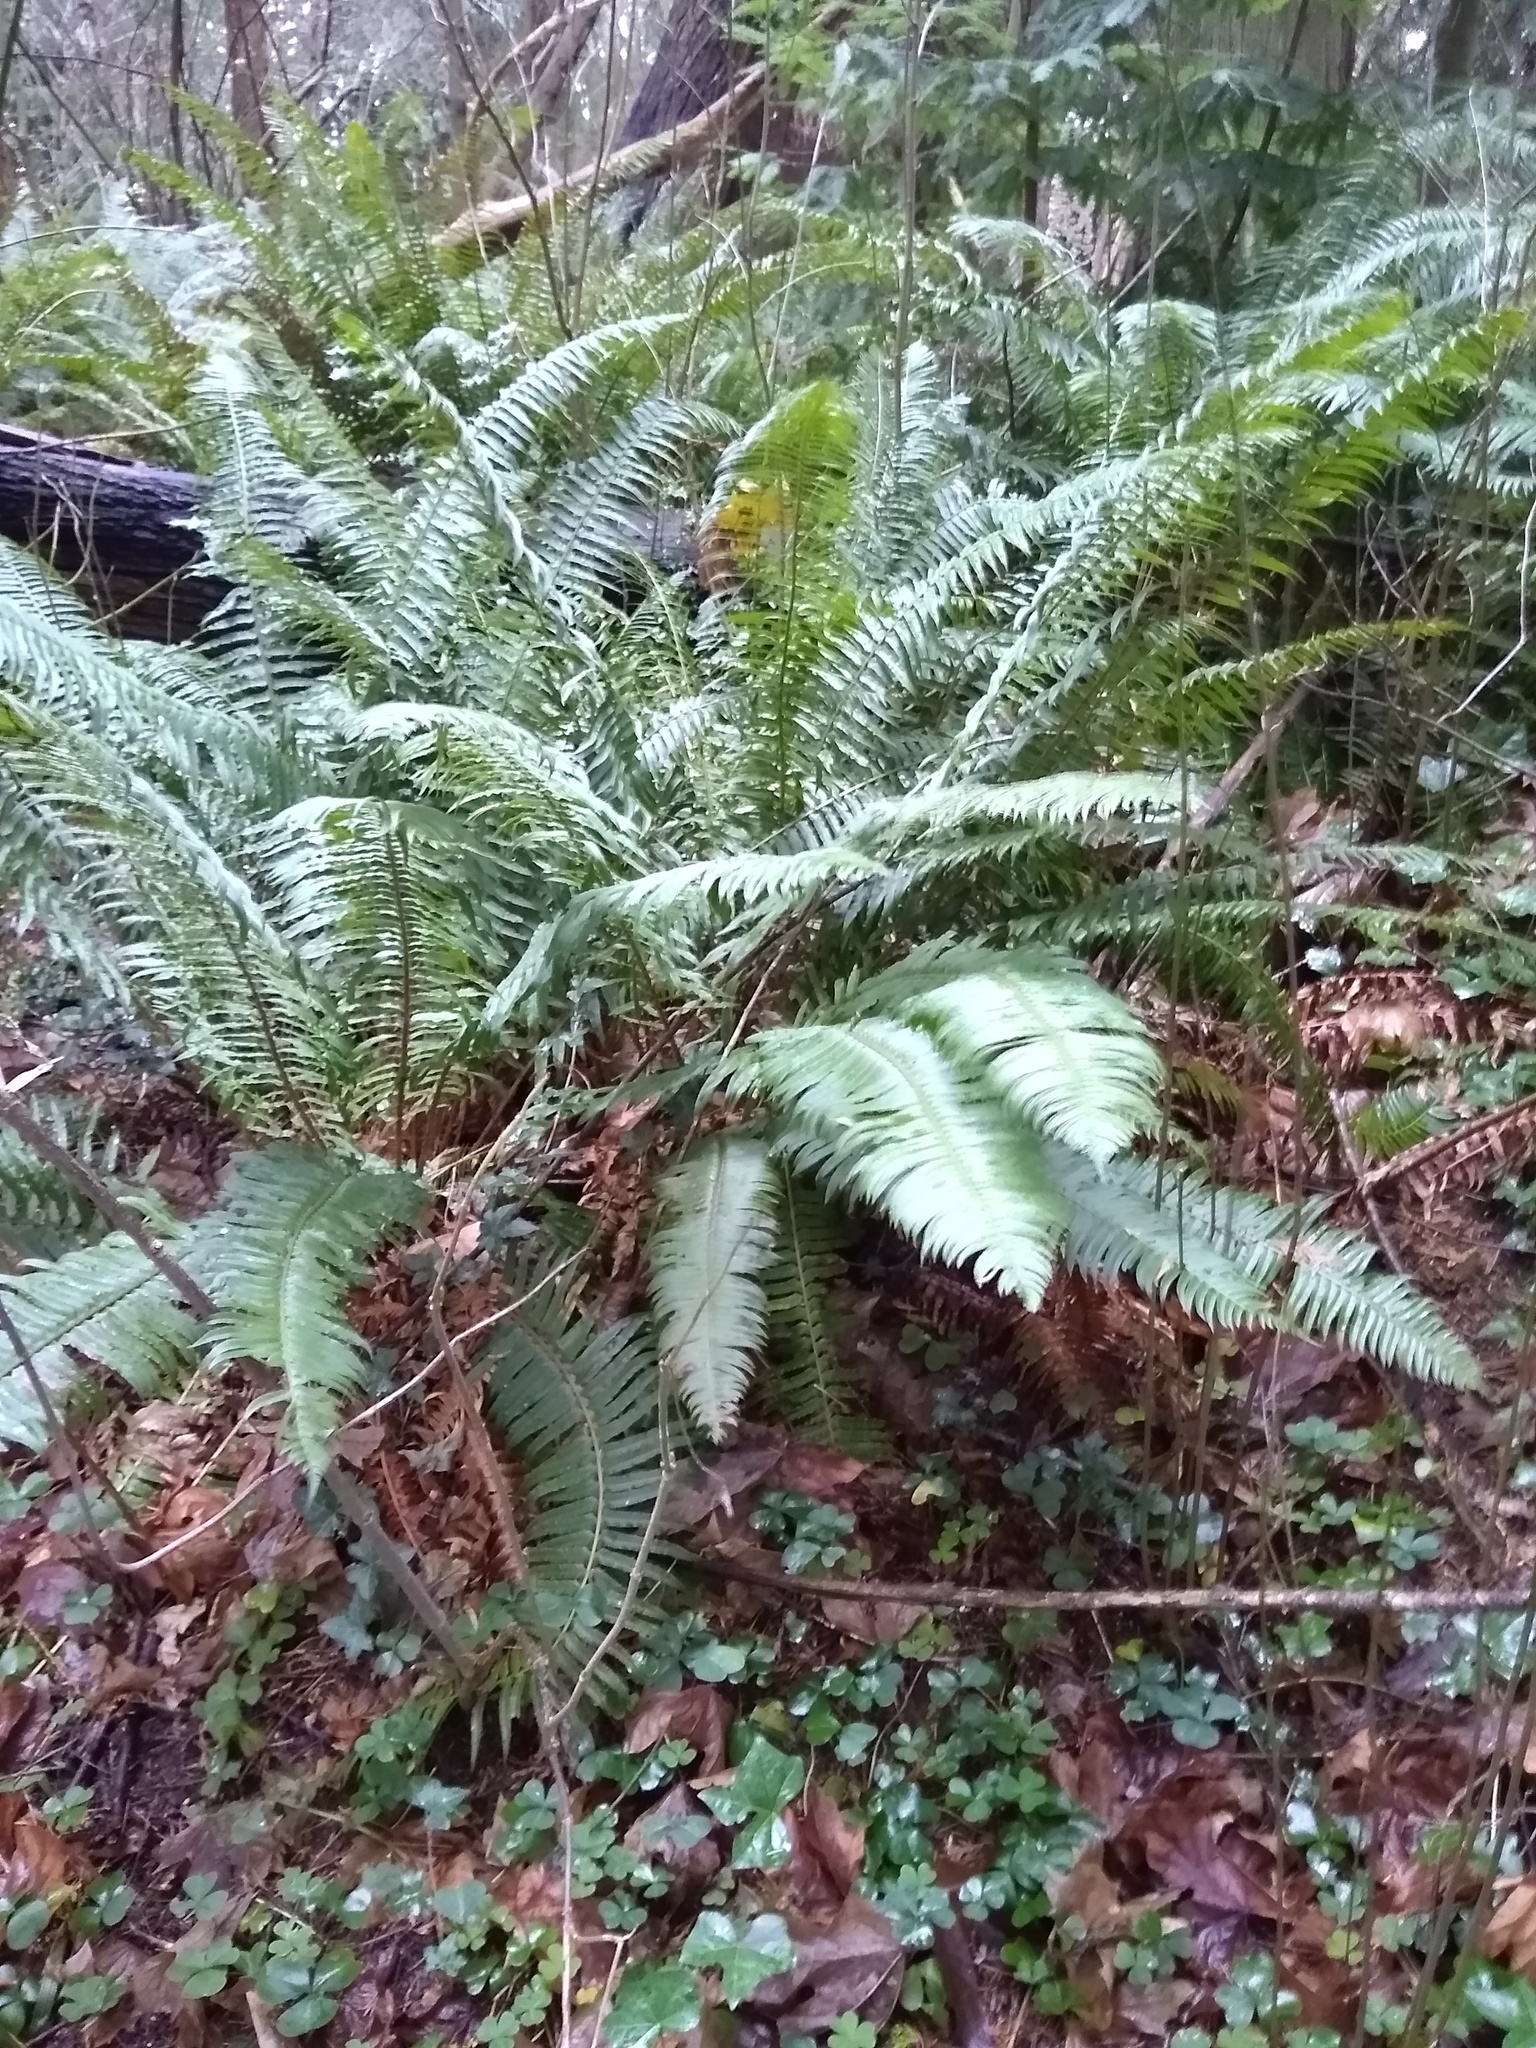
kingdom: Plantae
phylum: Tracheophyta
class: Polypodiopsida
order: Polypodiales
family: Dryopteridaceae
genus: Polystichum
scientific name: Polystichum munitum
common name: Western sword-fern
